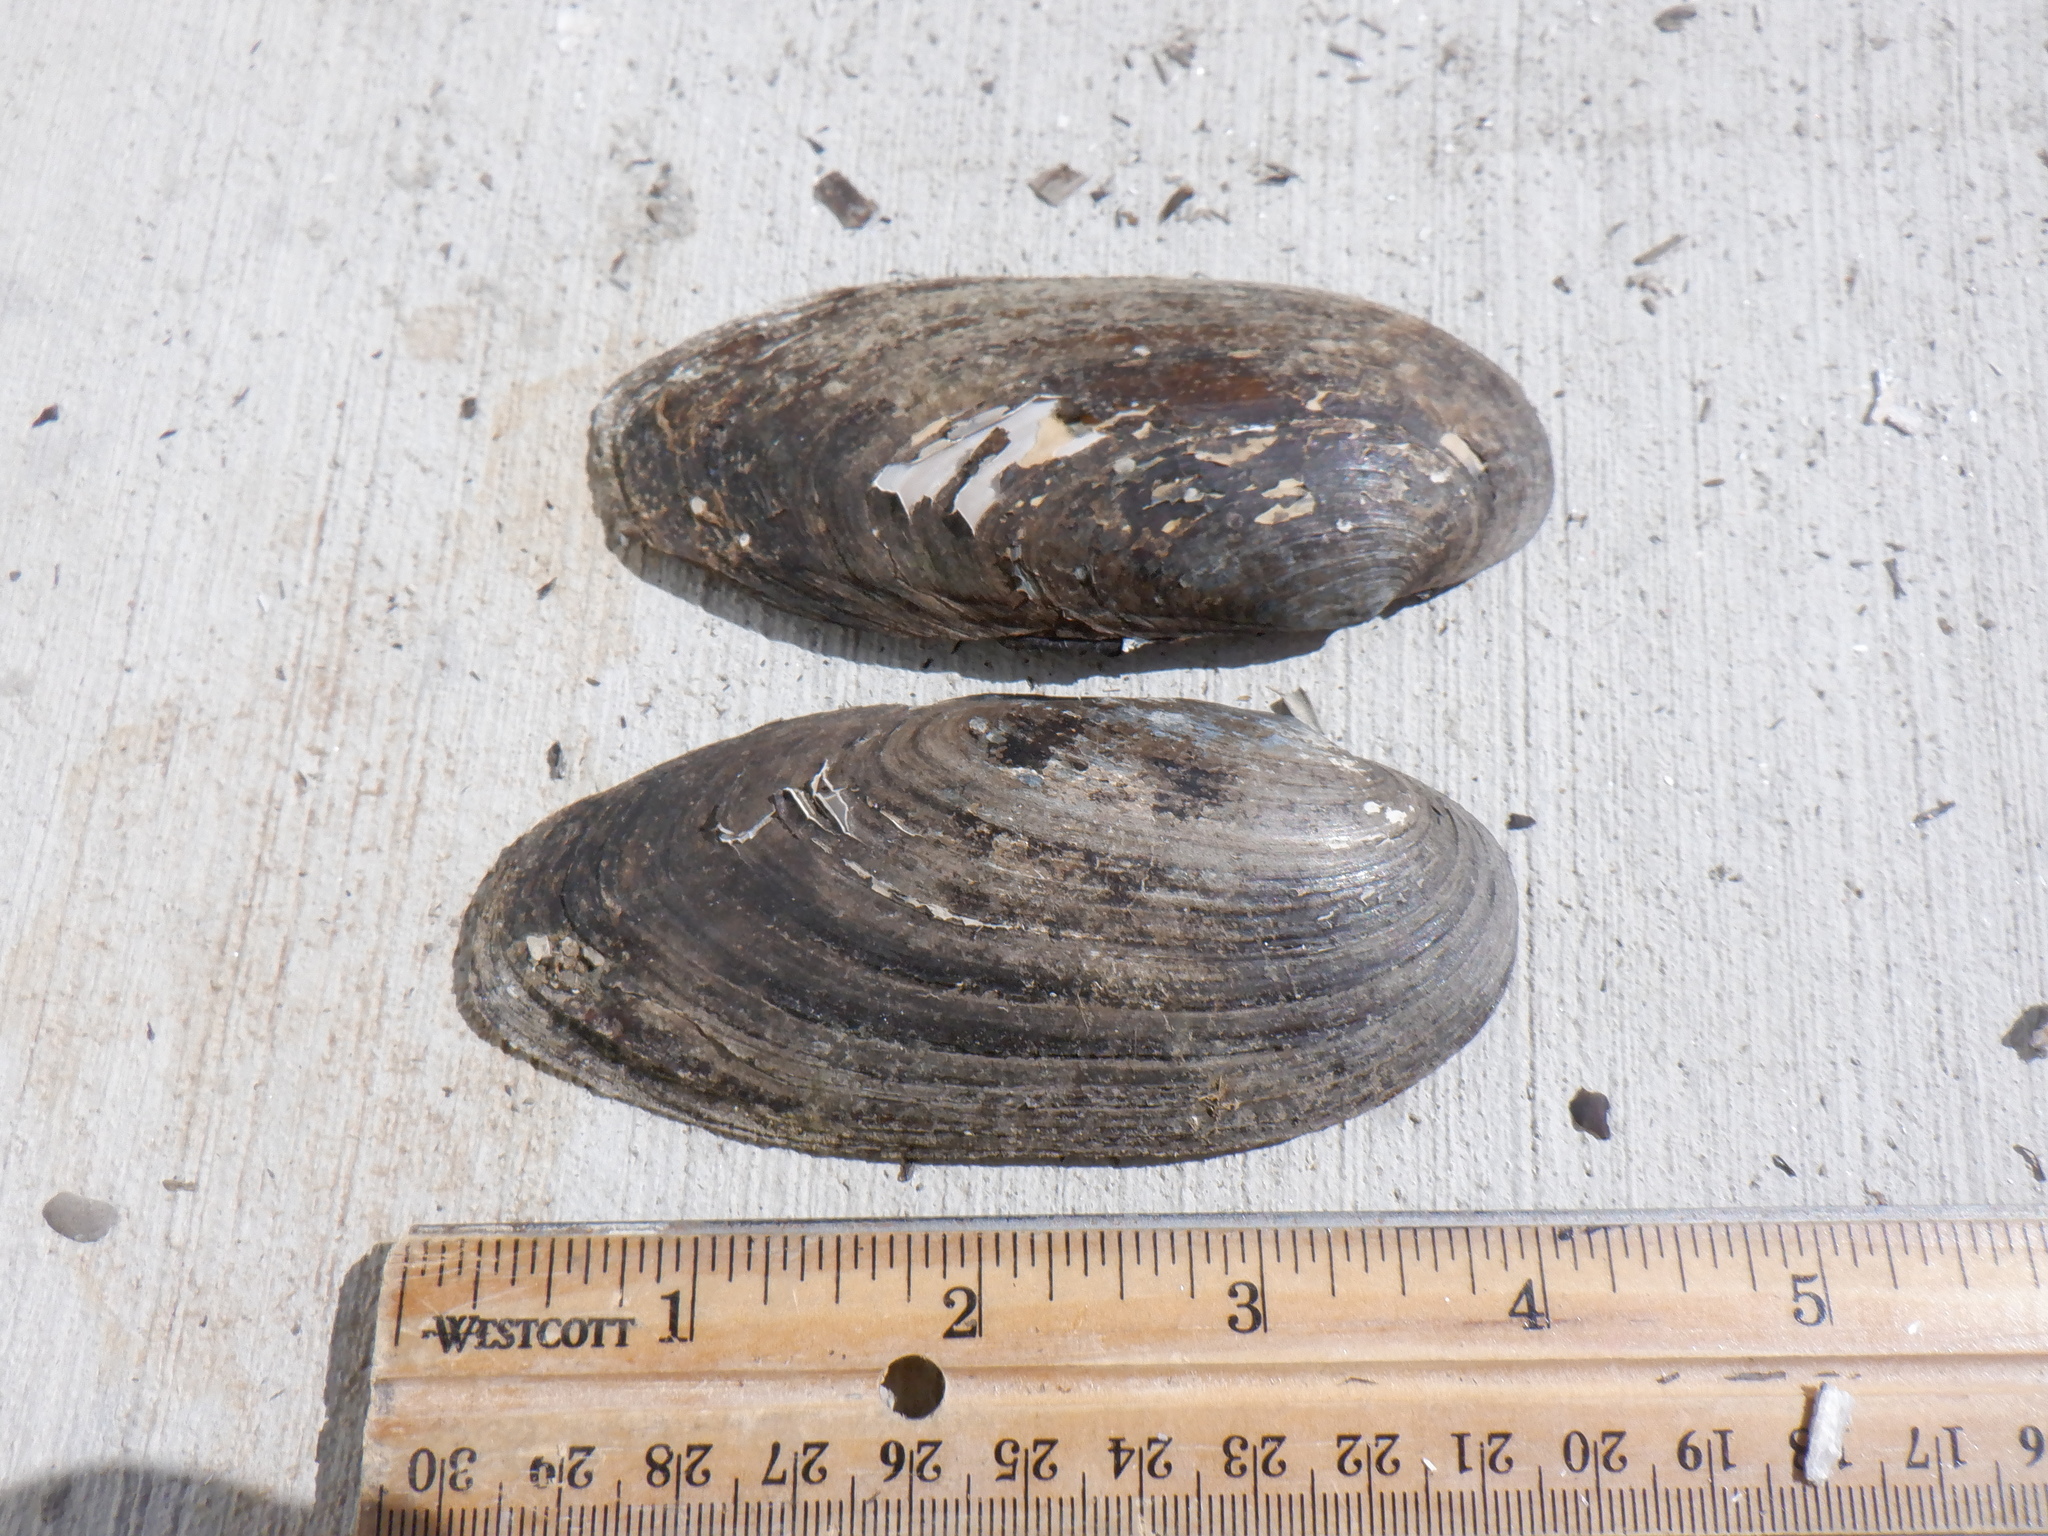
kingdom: Animalia
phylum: Mollusca
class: Bivalvia
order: Unionida
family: Unionidae
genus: Eurynia
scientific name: Eurynia dilatata
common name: Spike
